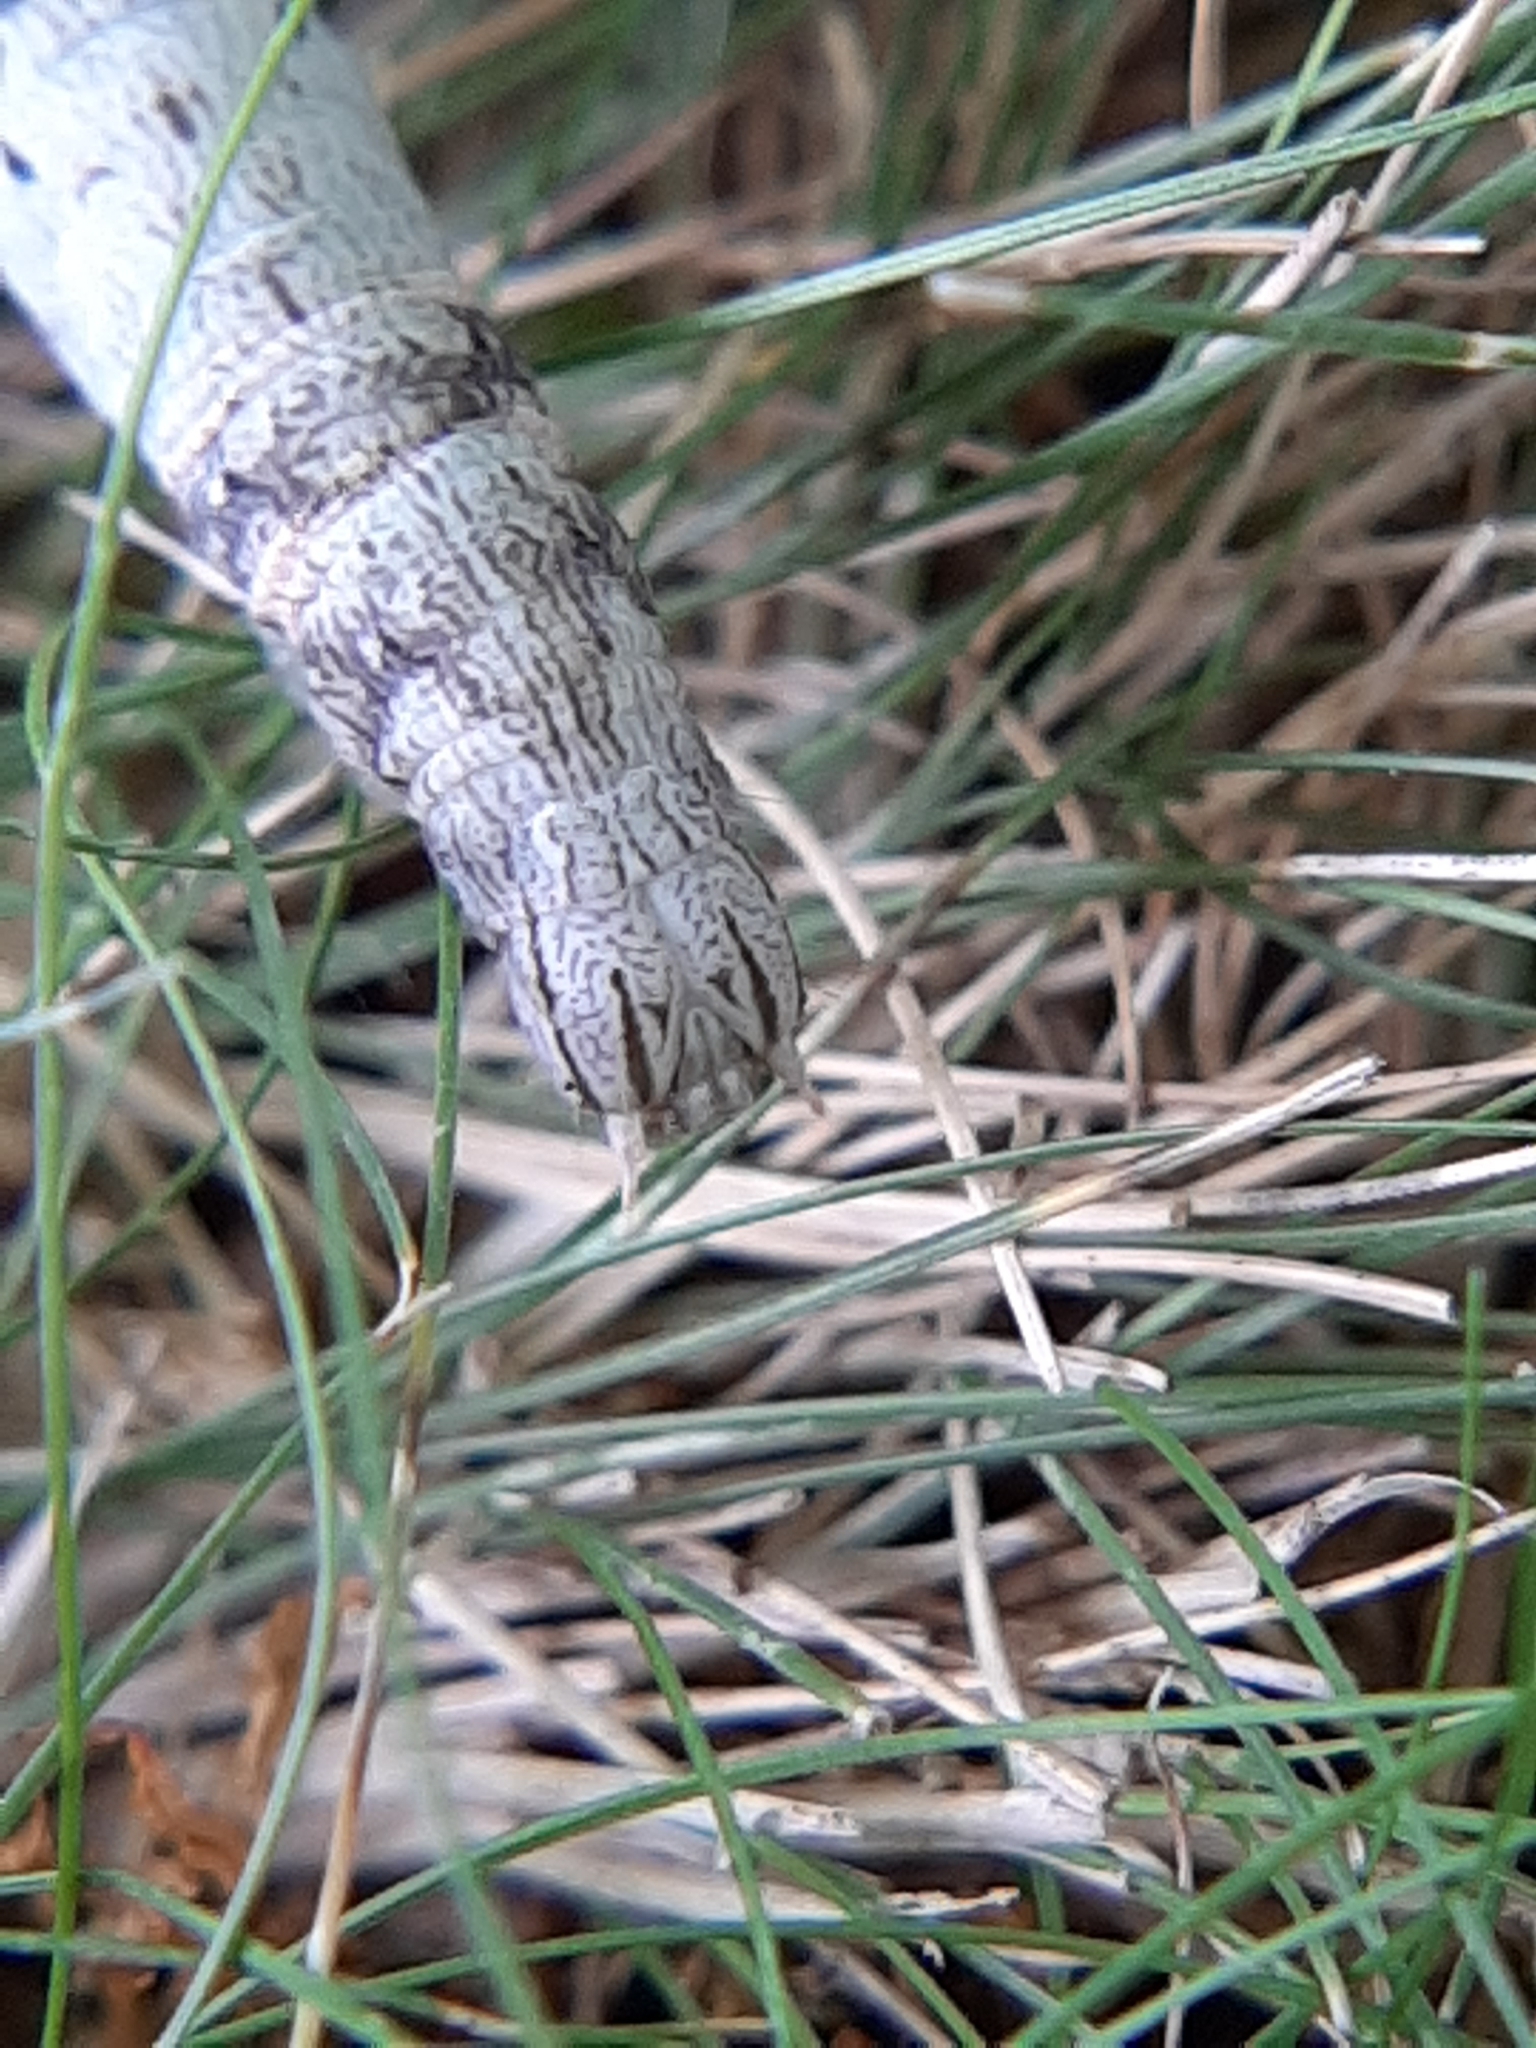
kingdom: Animalia
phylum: Arthropoda
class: Insecta
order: Lepidoptera
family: Erebidae
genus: Parallelia
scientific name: Parallelia bistriaris
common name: Maple looper moth
